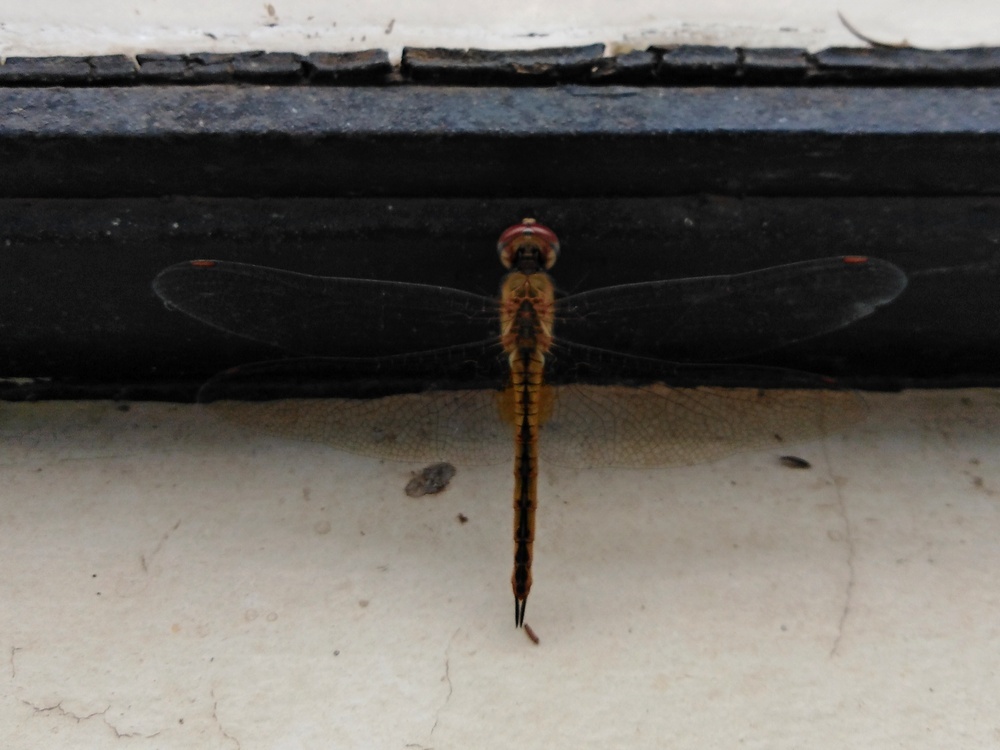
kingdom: Animalia
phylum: Arthropoda
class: Insecta
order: Odonata
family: Libellulidae
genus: Pantala
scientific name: Pantala flavescens
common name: Wandering glider
